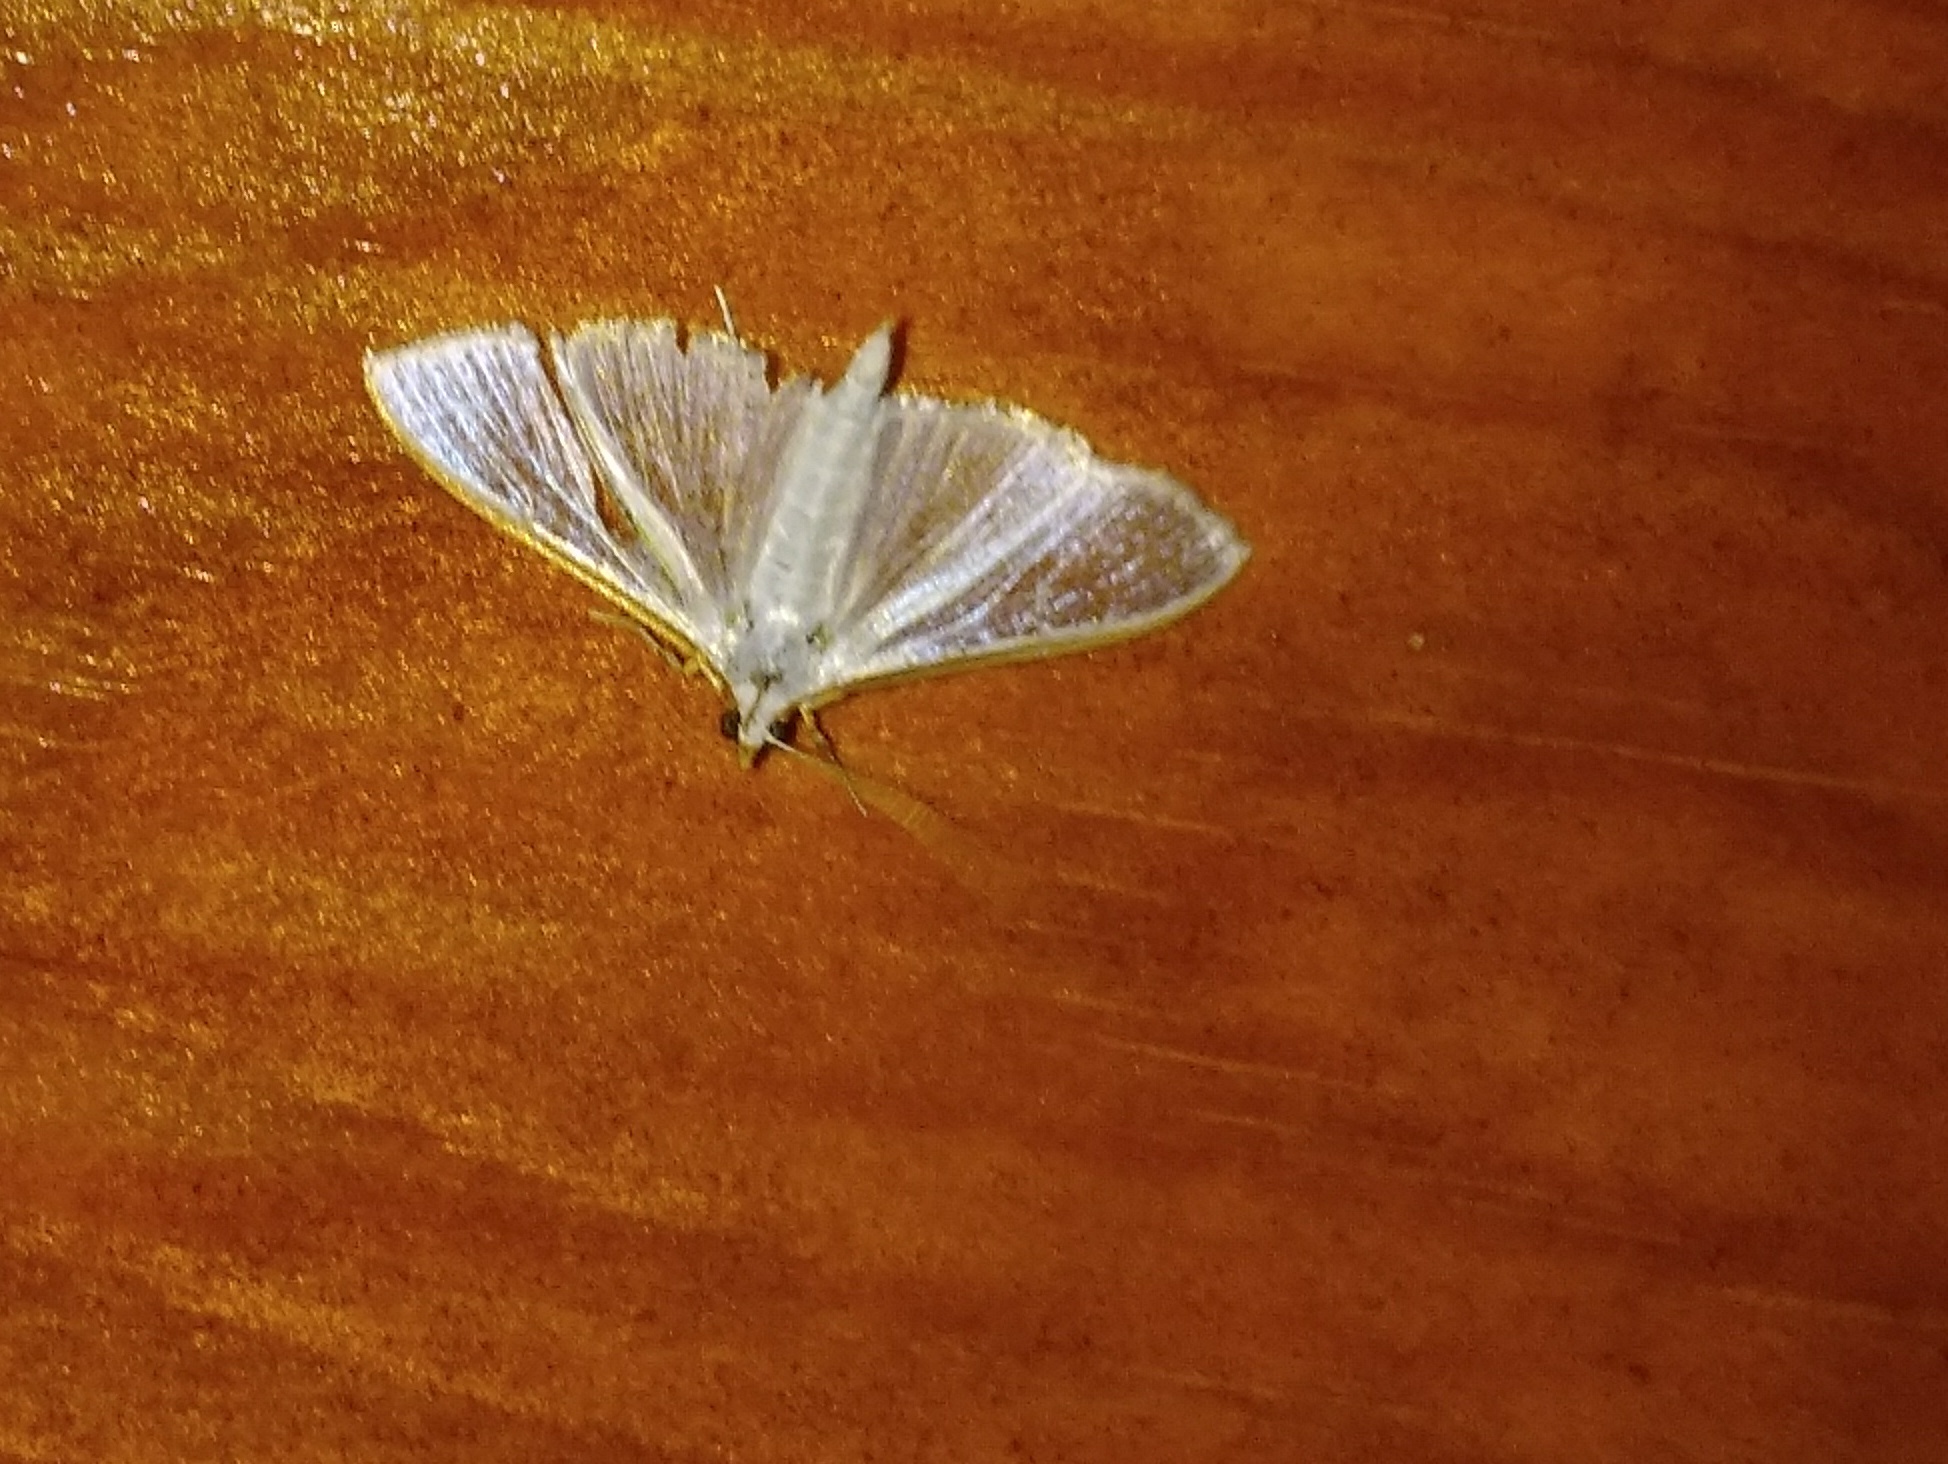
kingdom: Animalia
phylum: Arthropoda
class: Insecta
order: Lepidoptera
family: Crambidae
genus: Palpita
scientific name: Palpita vitrealis
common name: Olive-tree pearl
